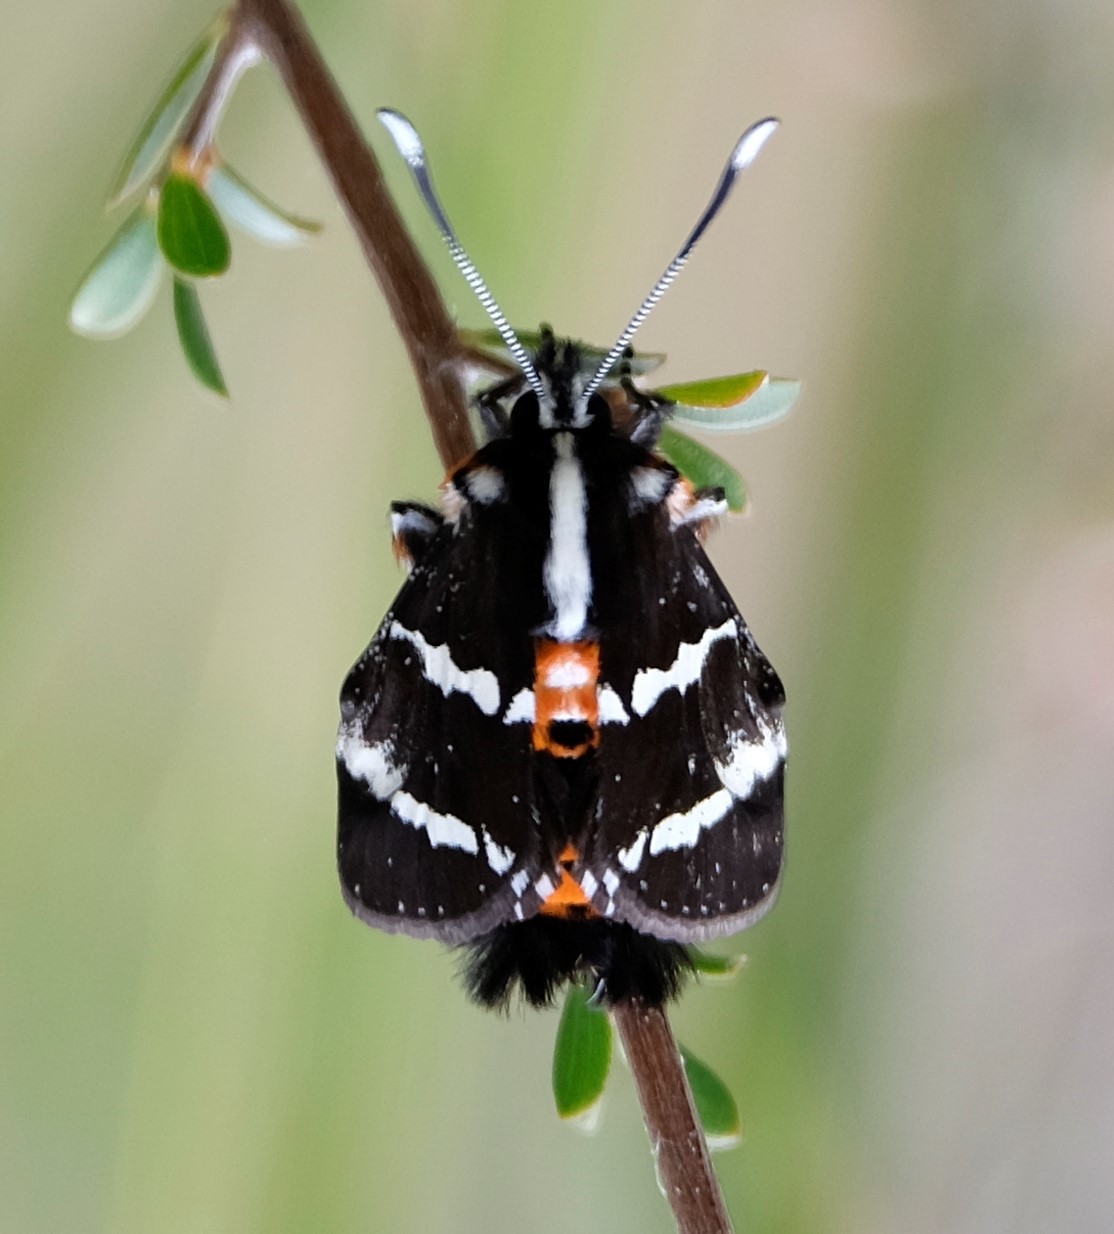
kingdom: Animalia
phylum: Arthropoda
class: Insecta
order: Lepidoptera
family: Noctuidae
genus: Hecatesia
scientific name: Hecatesia fenestrata
